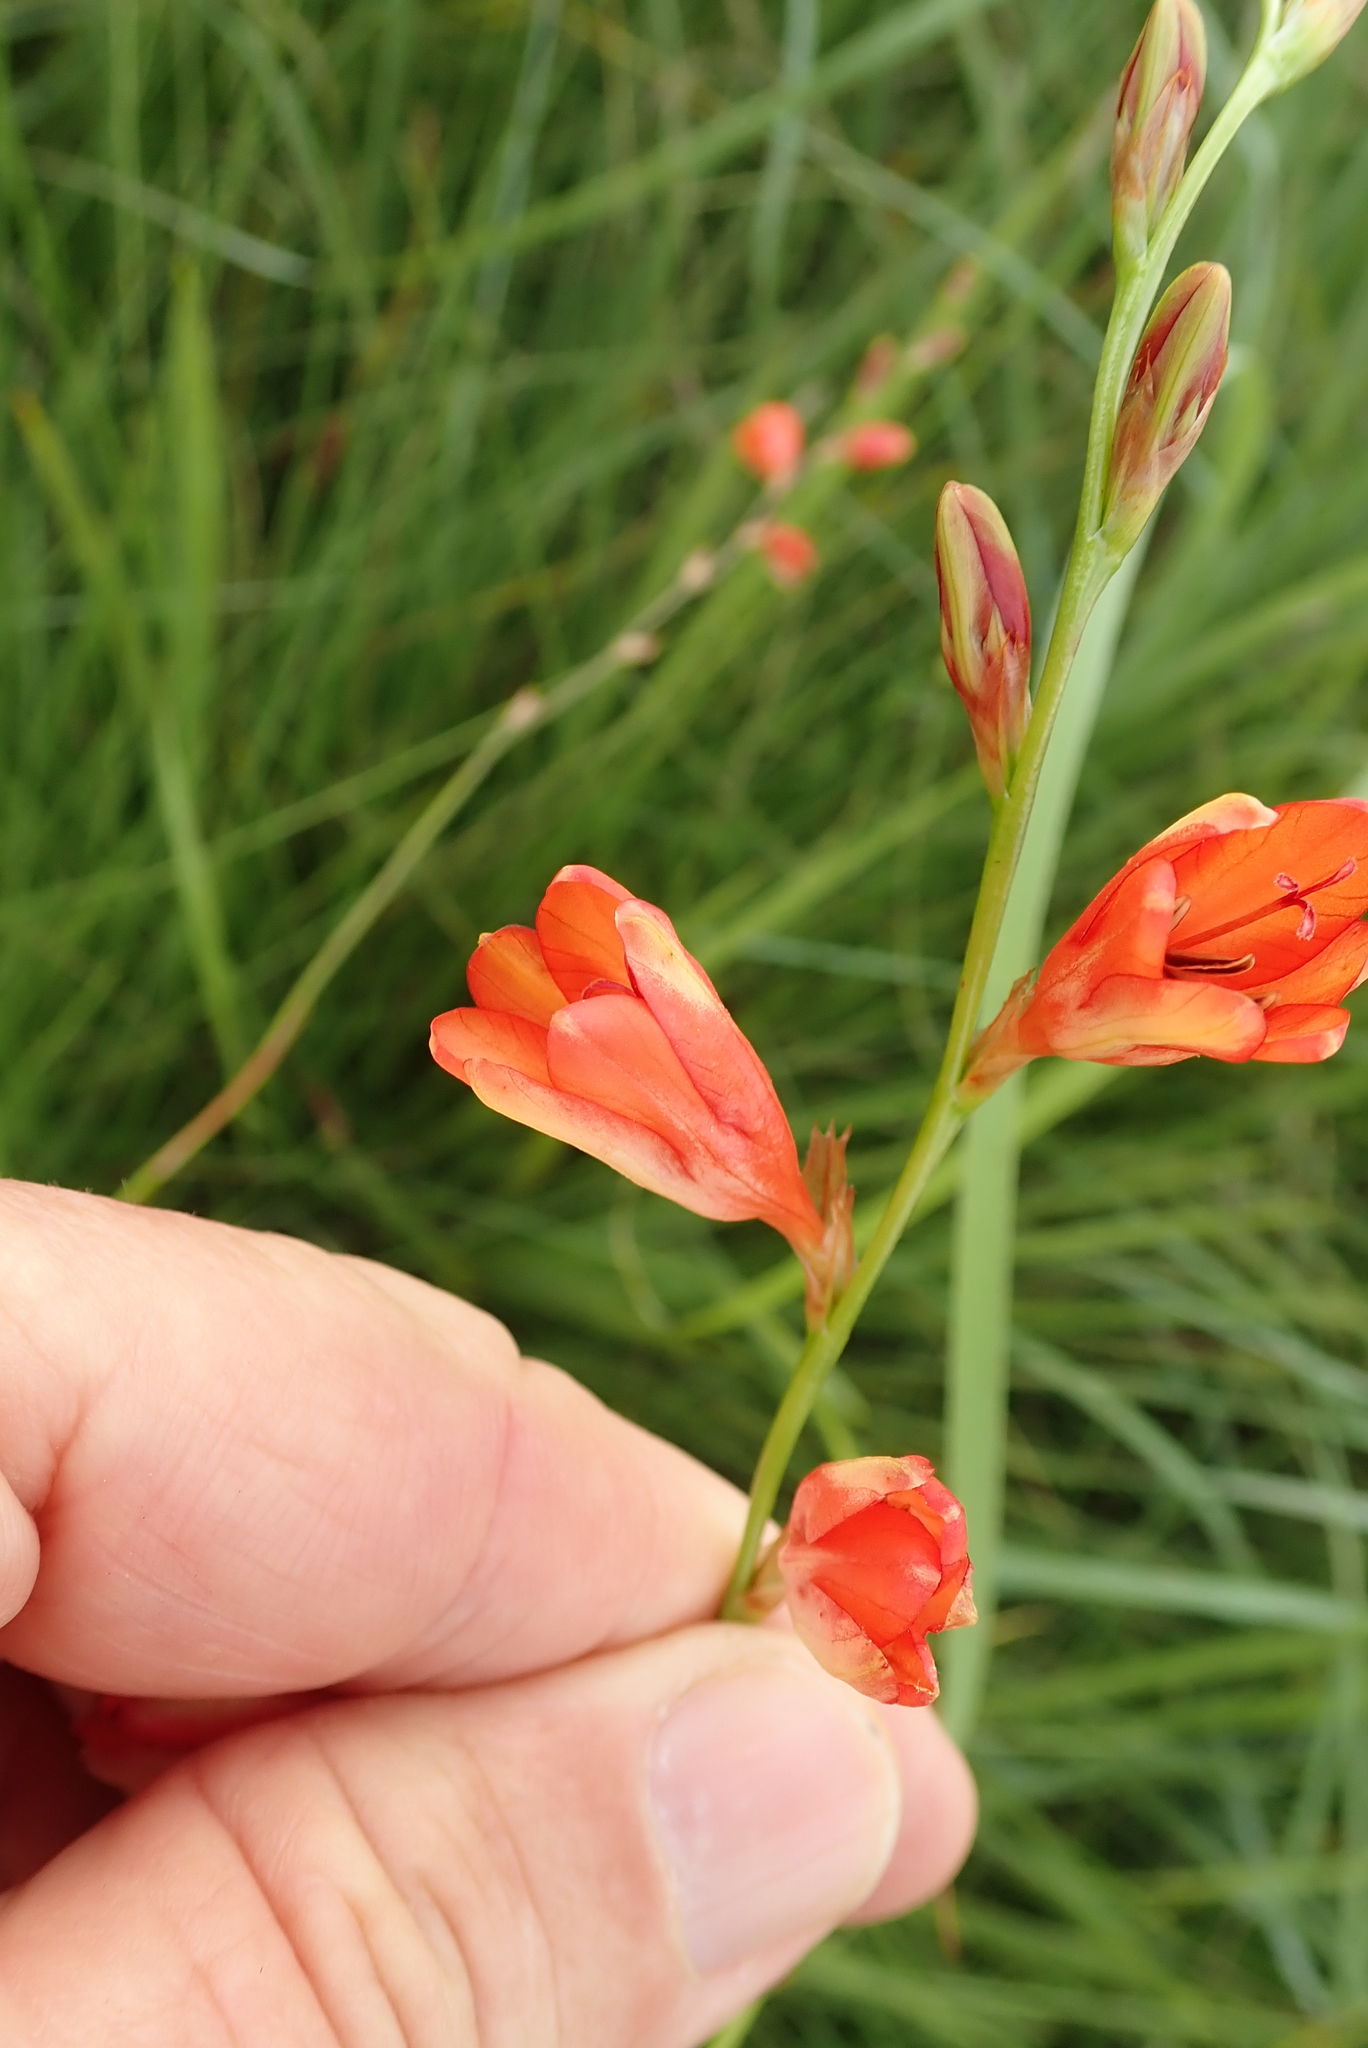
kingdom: Plantae
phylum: Tracheophyta
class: Liliopsida
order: Asparagales
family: Iridaceae
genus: Tritonia
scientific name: Tritonia disticha
